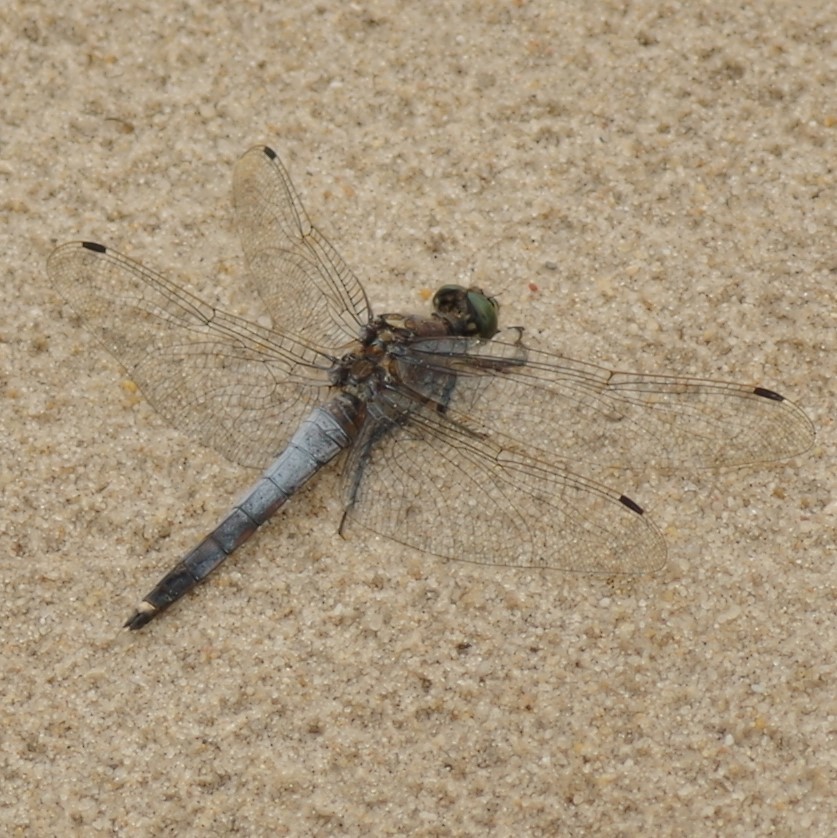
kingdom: Animalia
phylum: Arthropoda
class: Insecta
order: Odonata
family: Libellulidae
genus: Orthetrum
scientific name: Orthetrum cancellatum
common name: Black-tailed skimmer
